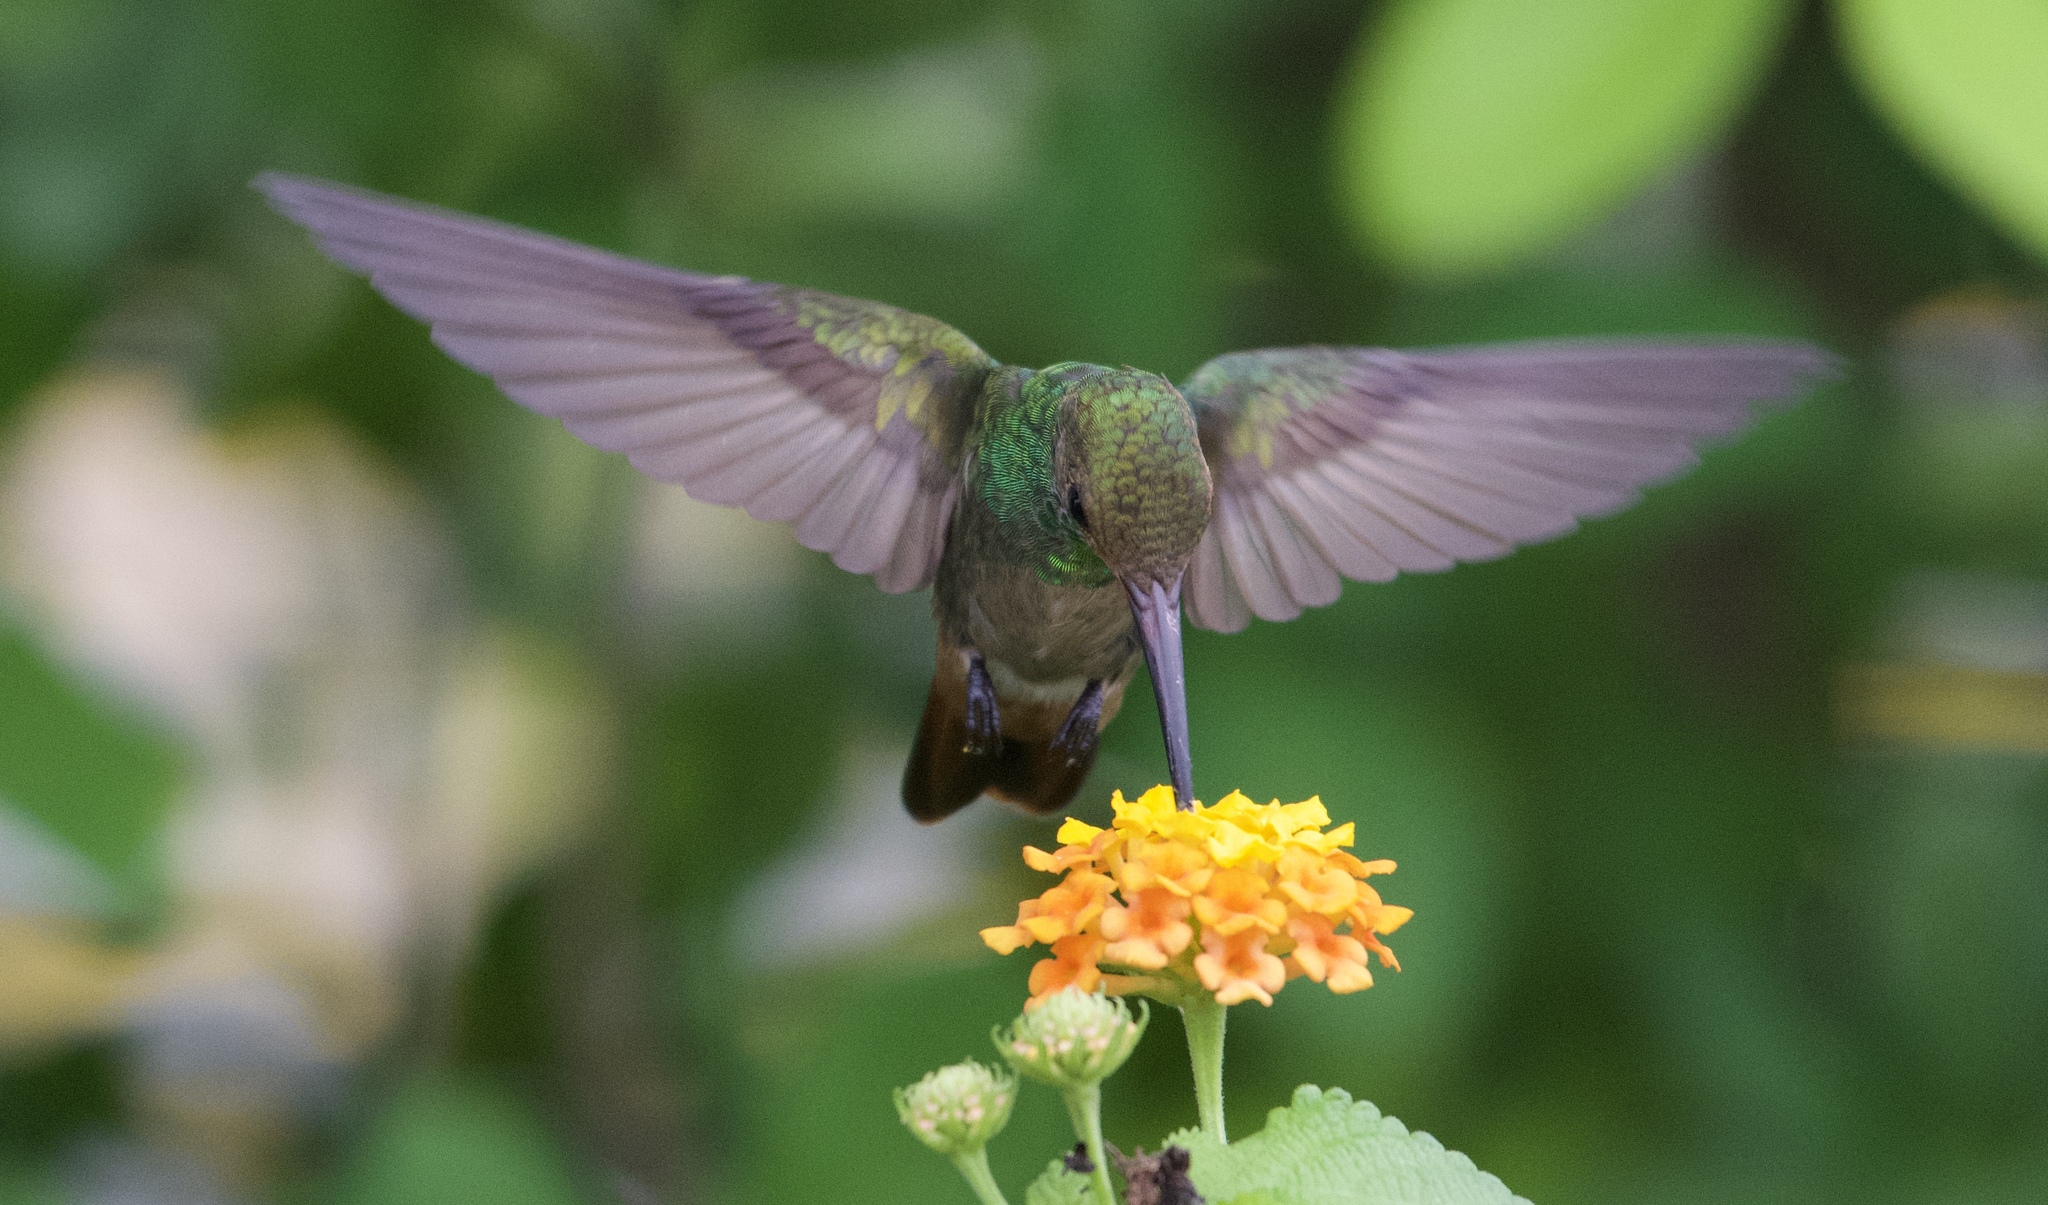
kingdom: Animalia
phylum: Chordata
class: Aves
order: Apodiformes
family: Trochilidae
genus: Amazilia
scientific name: Amazilia tzacatl
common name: Rufous-tailed hummingbird
